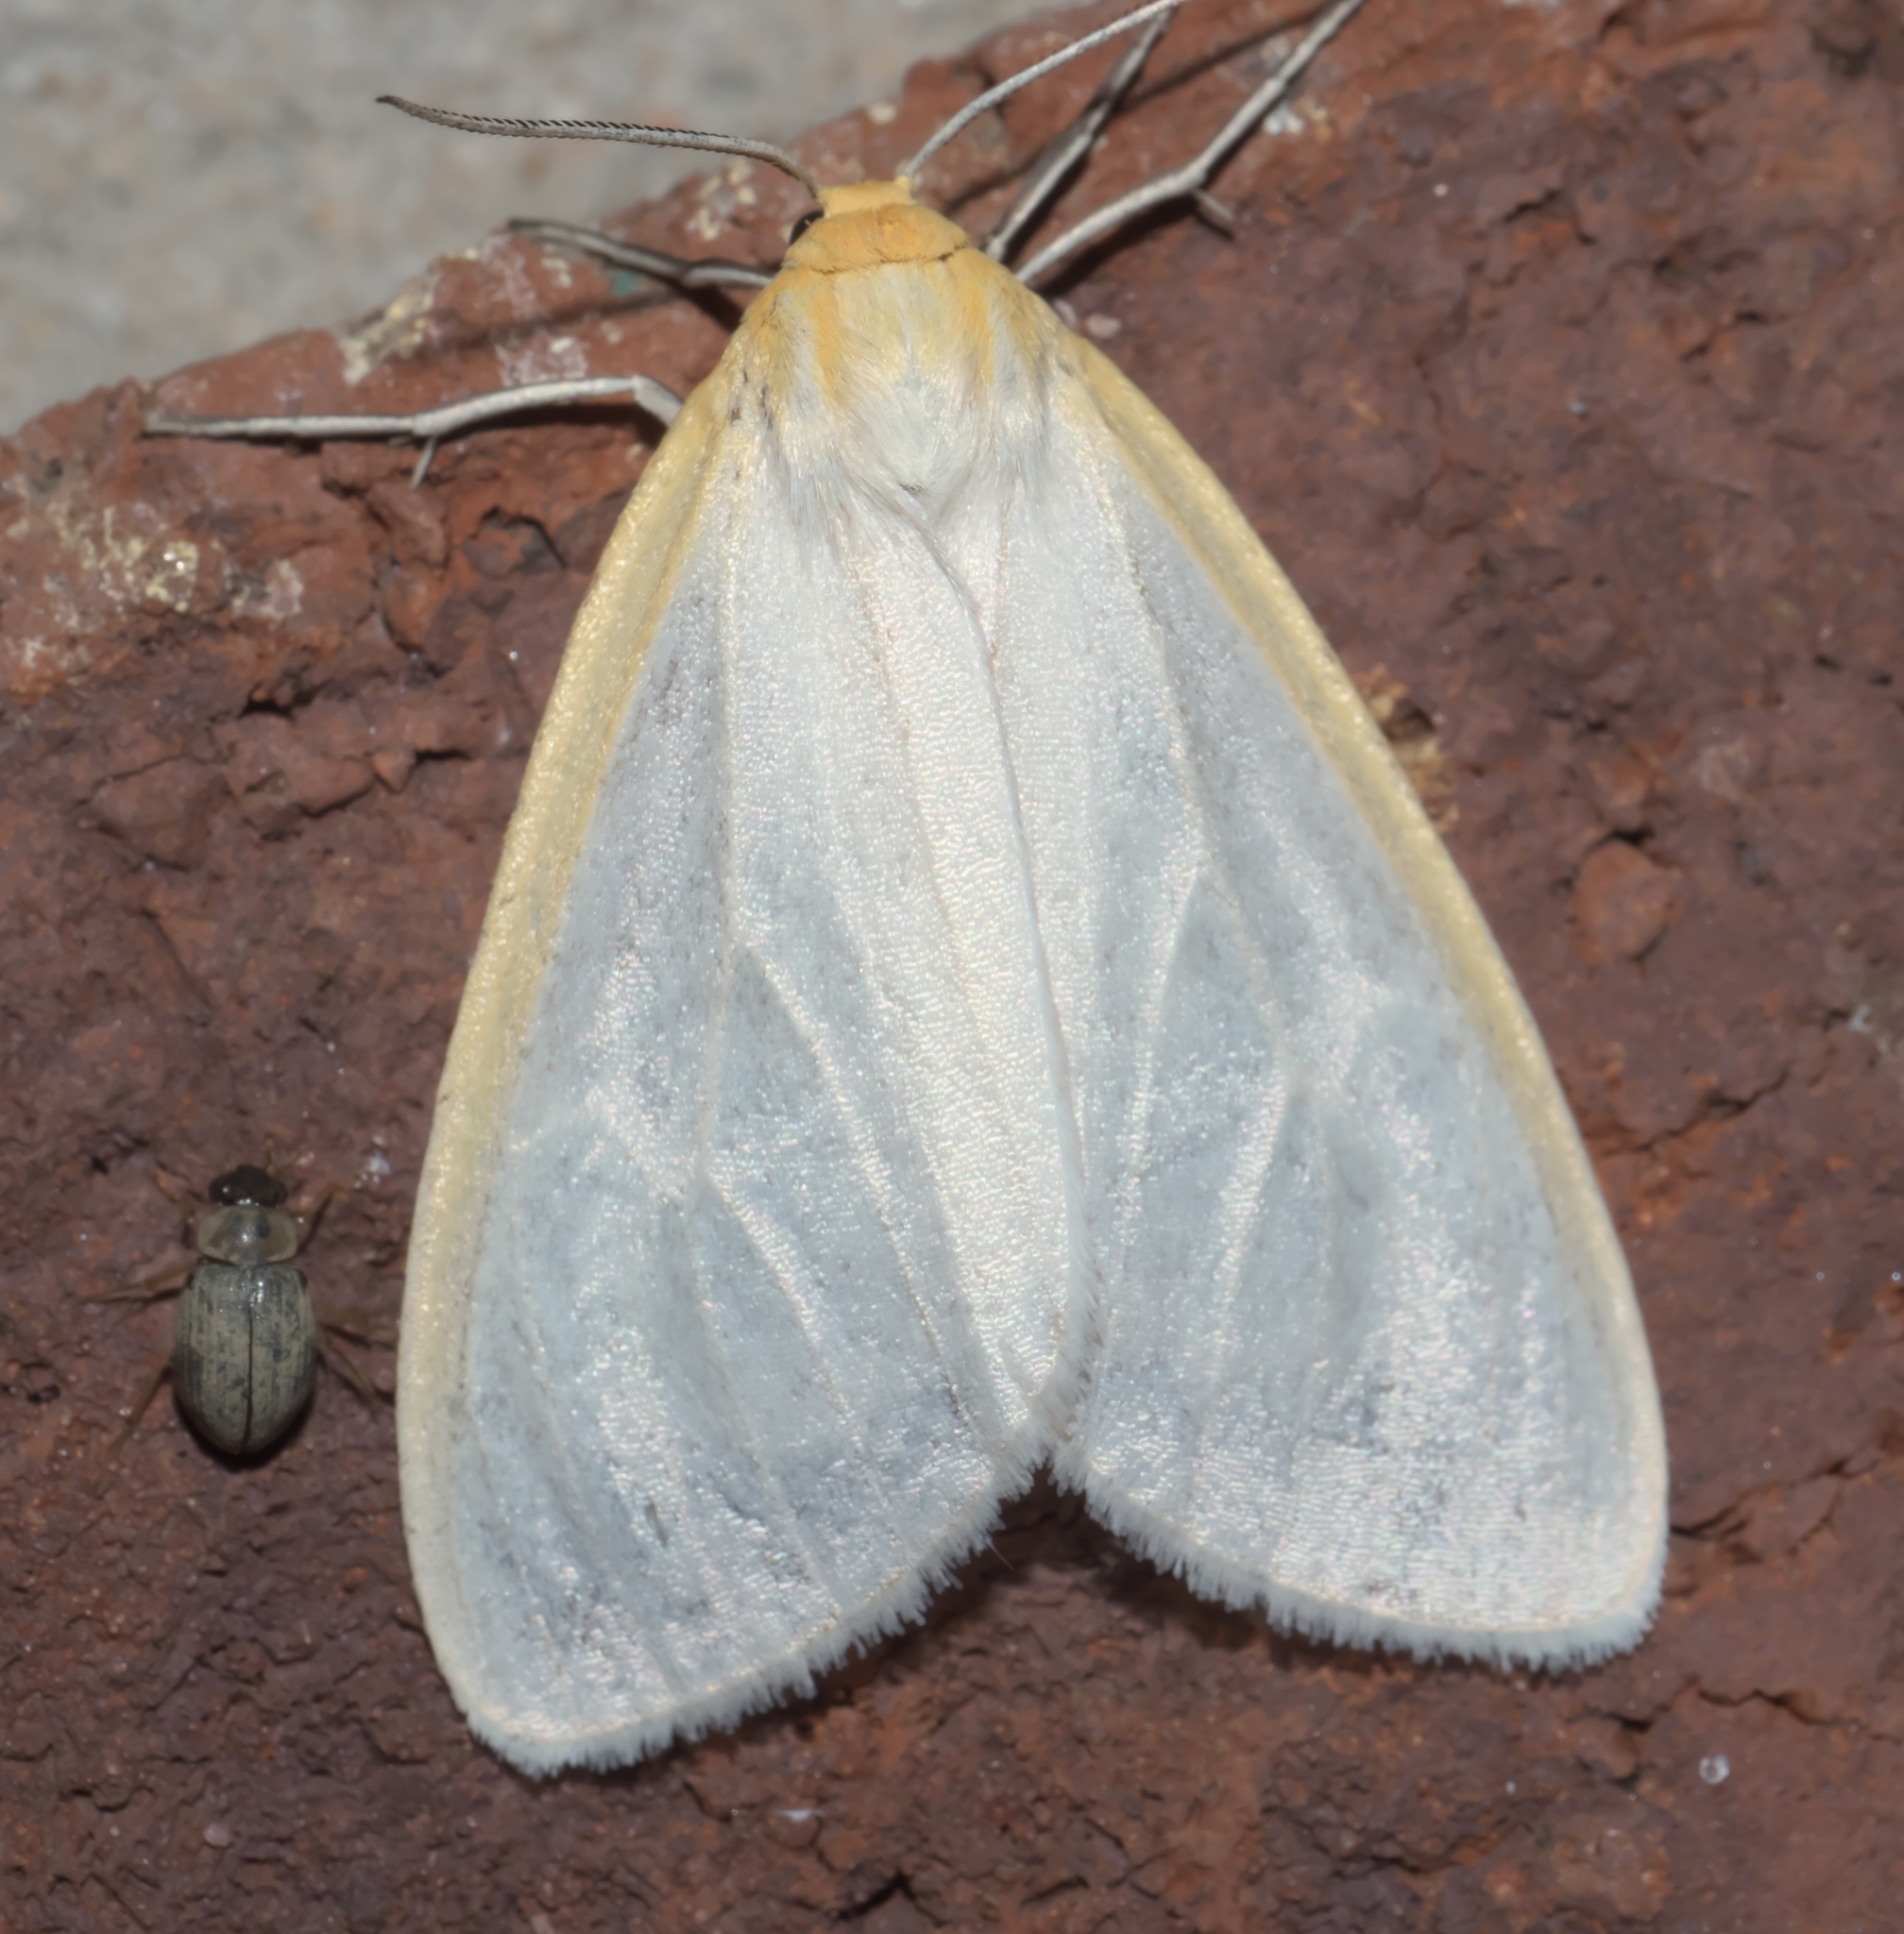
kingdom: Animalia
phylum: Arthropoda
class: Insecta
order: Lepidoptera
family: Erebidae
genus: Cycnia
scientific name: Cycnia tenera
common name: Delicate cycnia moth
